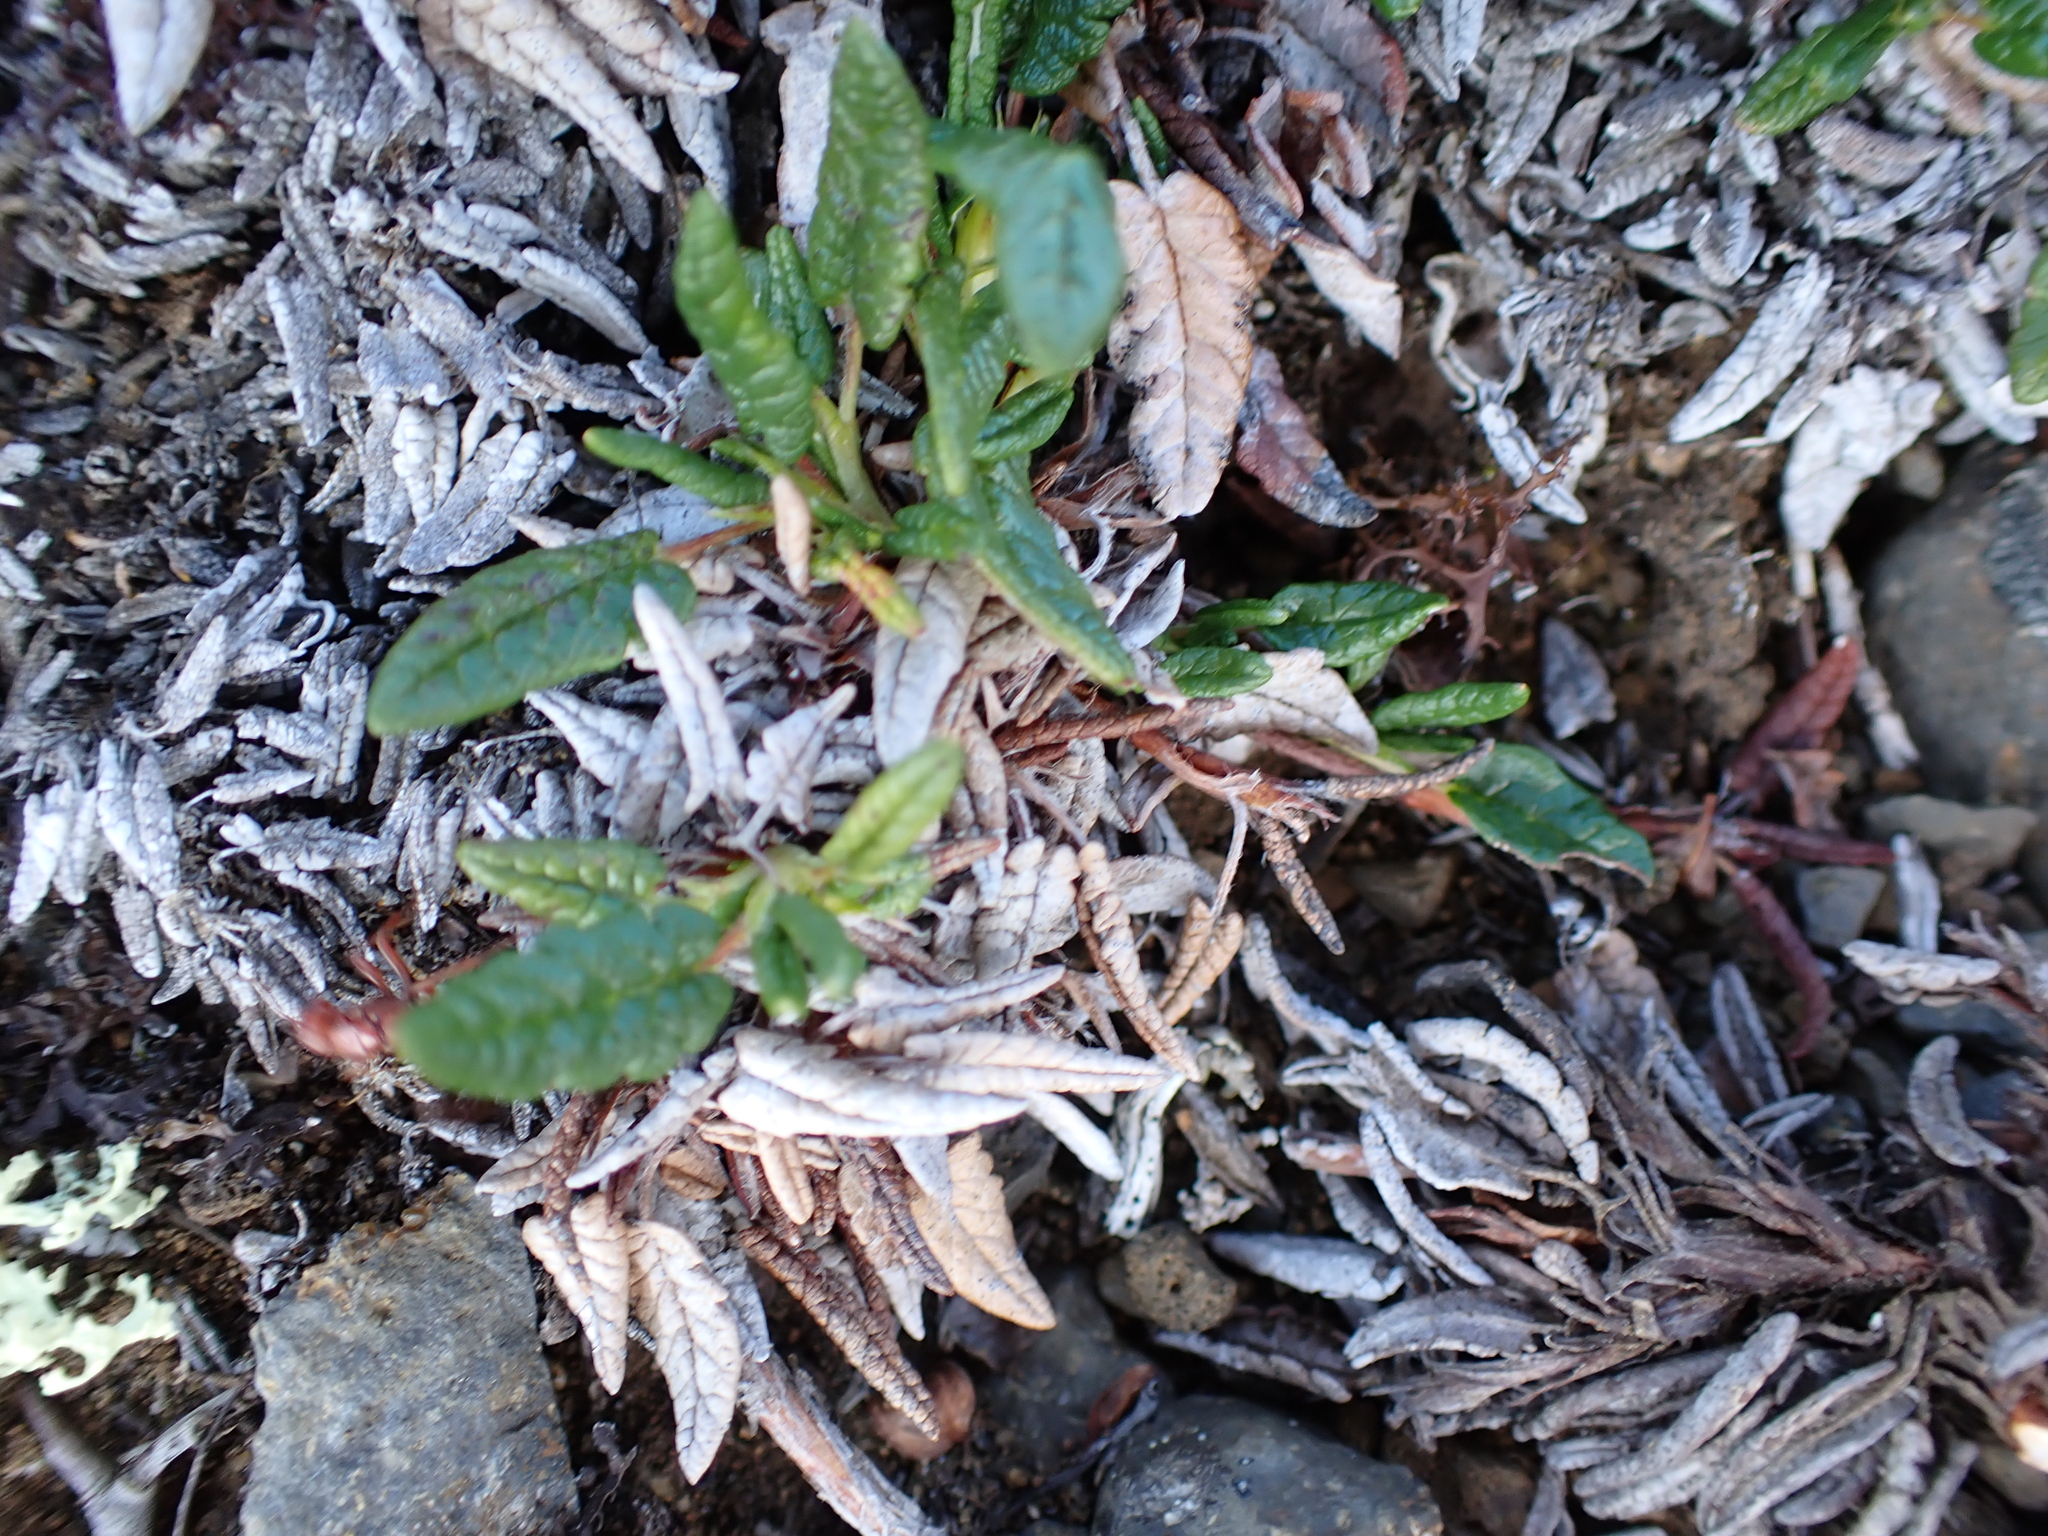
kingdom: Plantae
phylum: Tracheophyta
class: Magnoliopsida
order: Rosales
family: Rosaceae
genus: Dryas
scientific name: Dryas integrifolia
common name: Entire-leaved mountain avens
